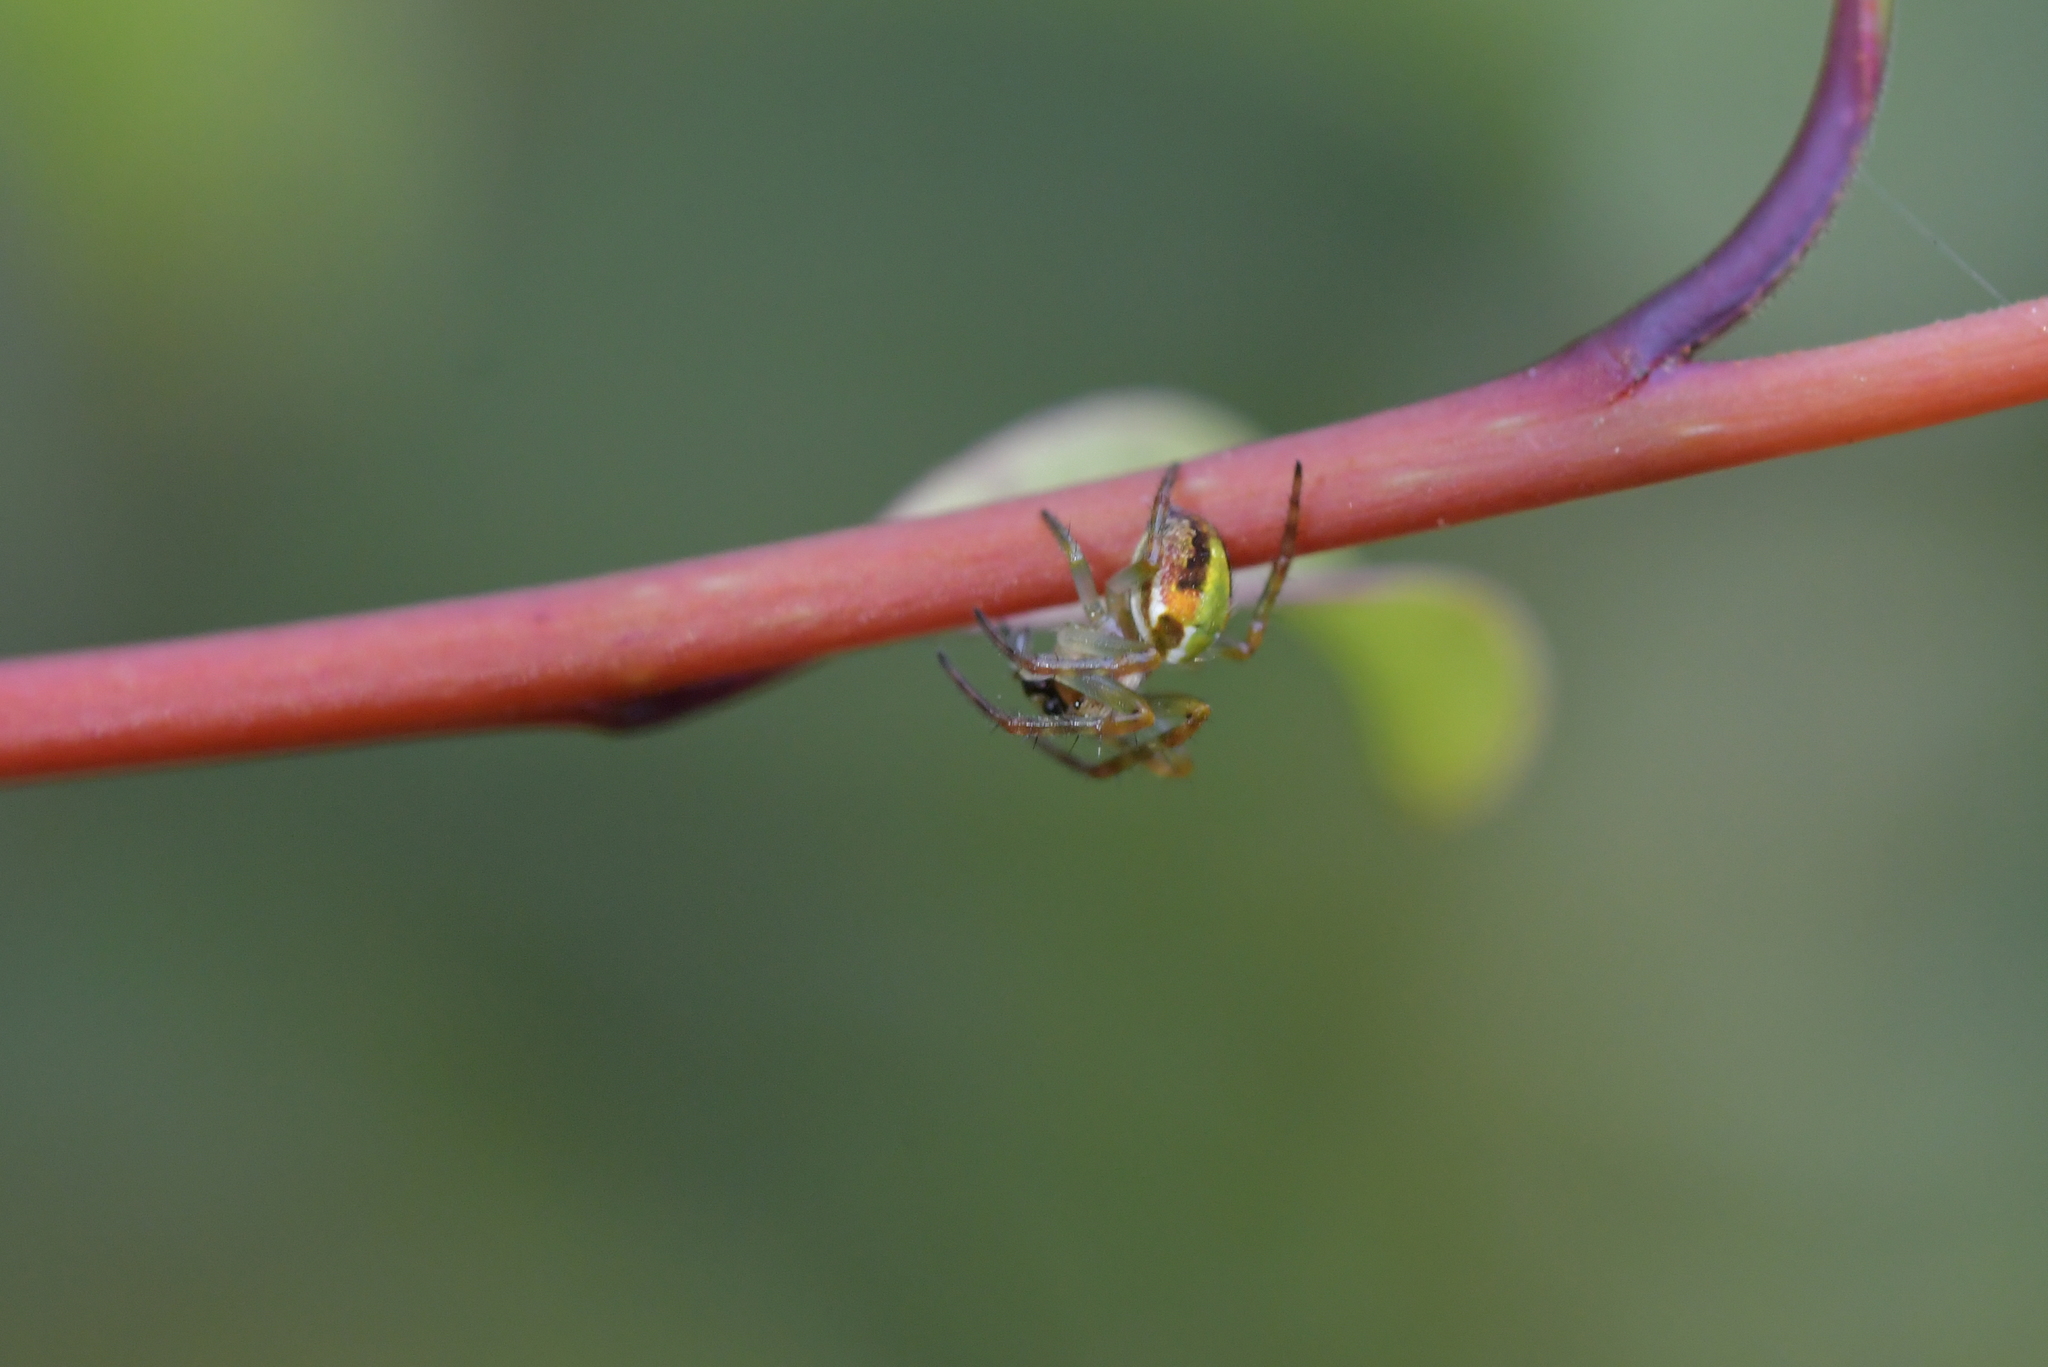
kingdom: Animalia
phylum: Arthropoda
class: Arachnida
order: Araneae
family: Araneidae
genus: Novaranea
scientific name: Novaranea queribunda
